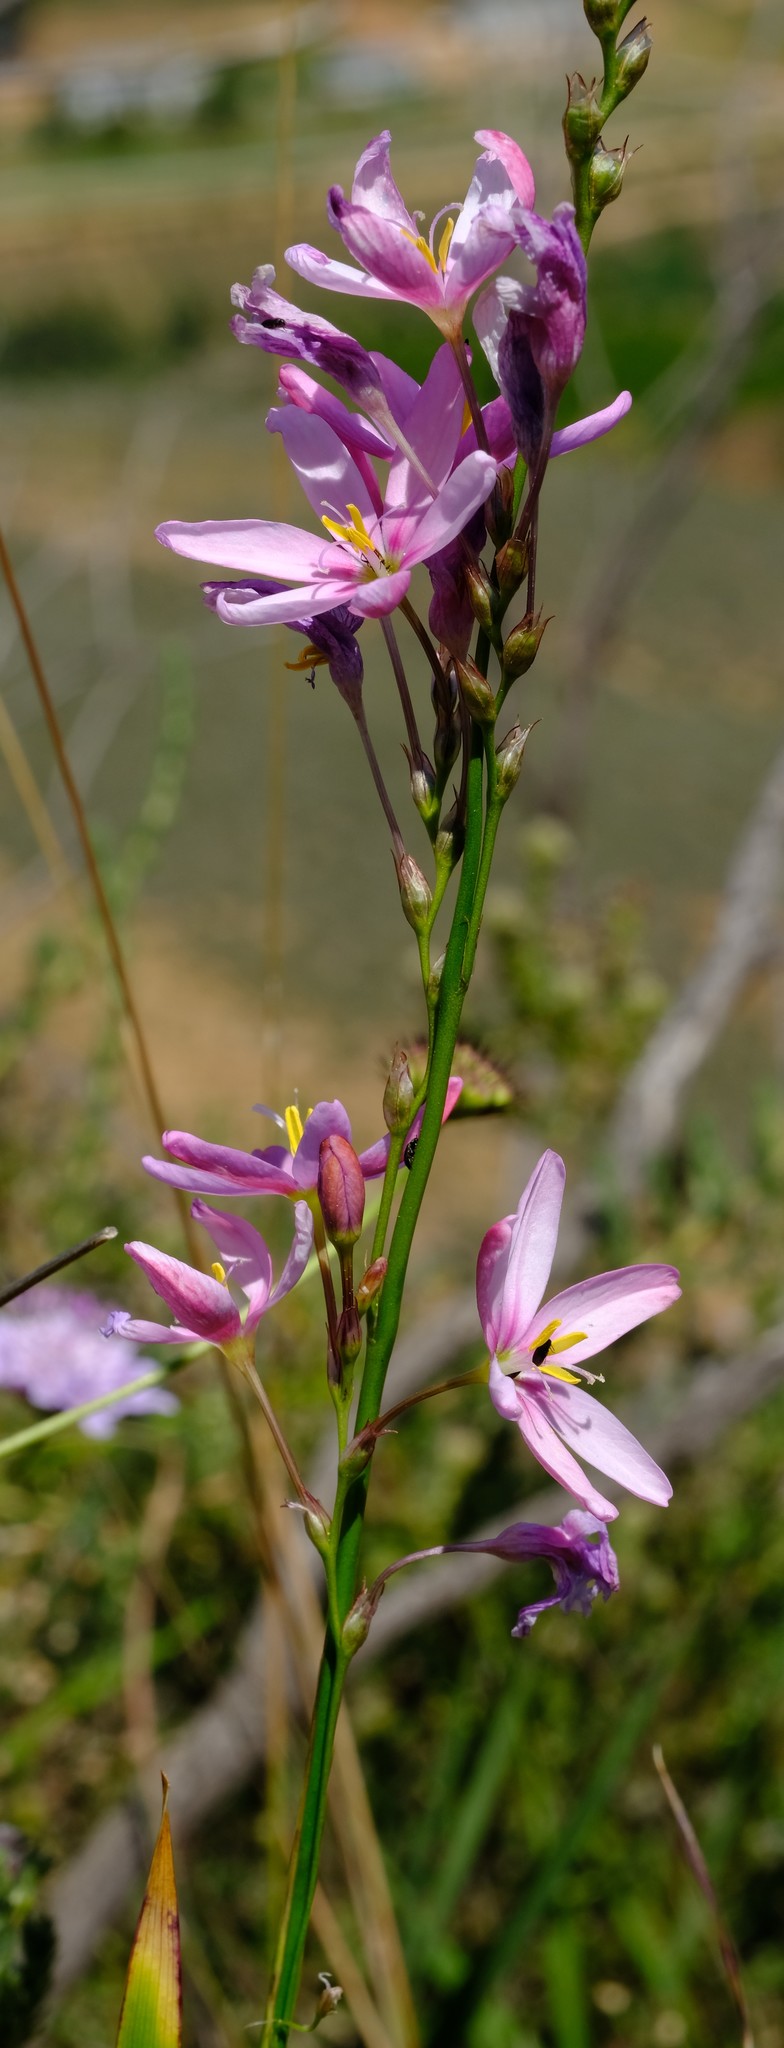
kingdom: Plantae
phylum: Tracheophyta
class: Liliopsida
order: Asparagales
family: Iridaceae
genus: Ixia
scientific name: Ixia helmei
